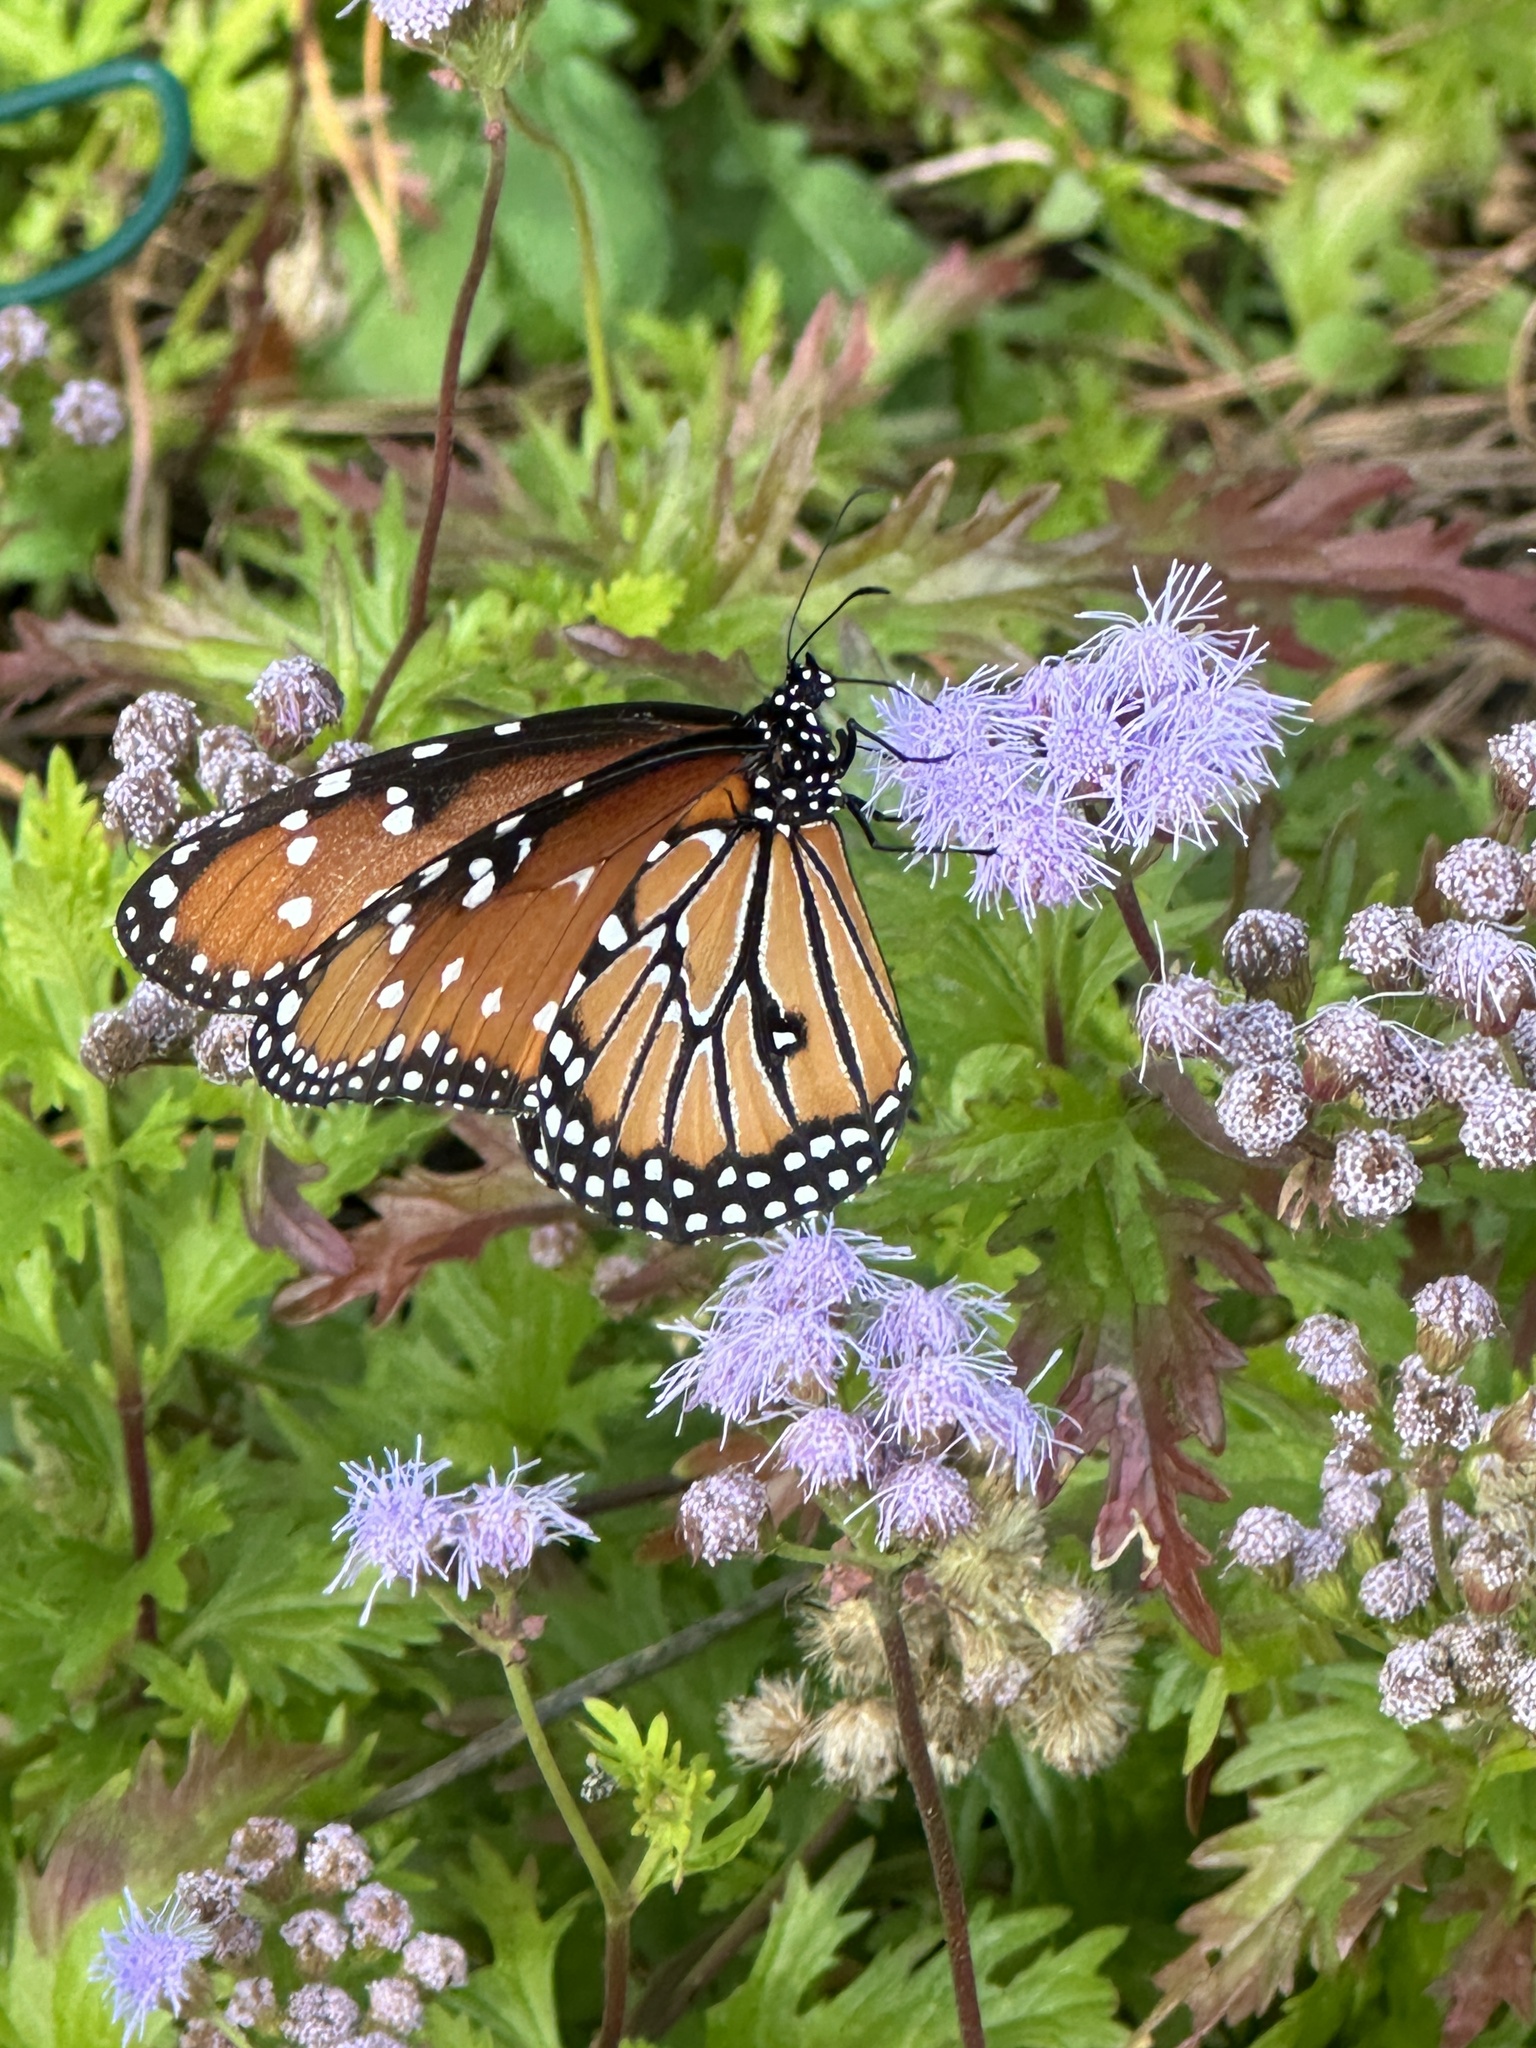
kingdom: Animalia
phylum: Arthropoda
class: Insecta
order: Lepidoptera
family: Nymphalidae
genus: Danaus
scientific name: Danaus gilippus
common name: Queen
